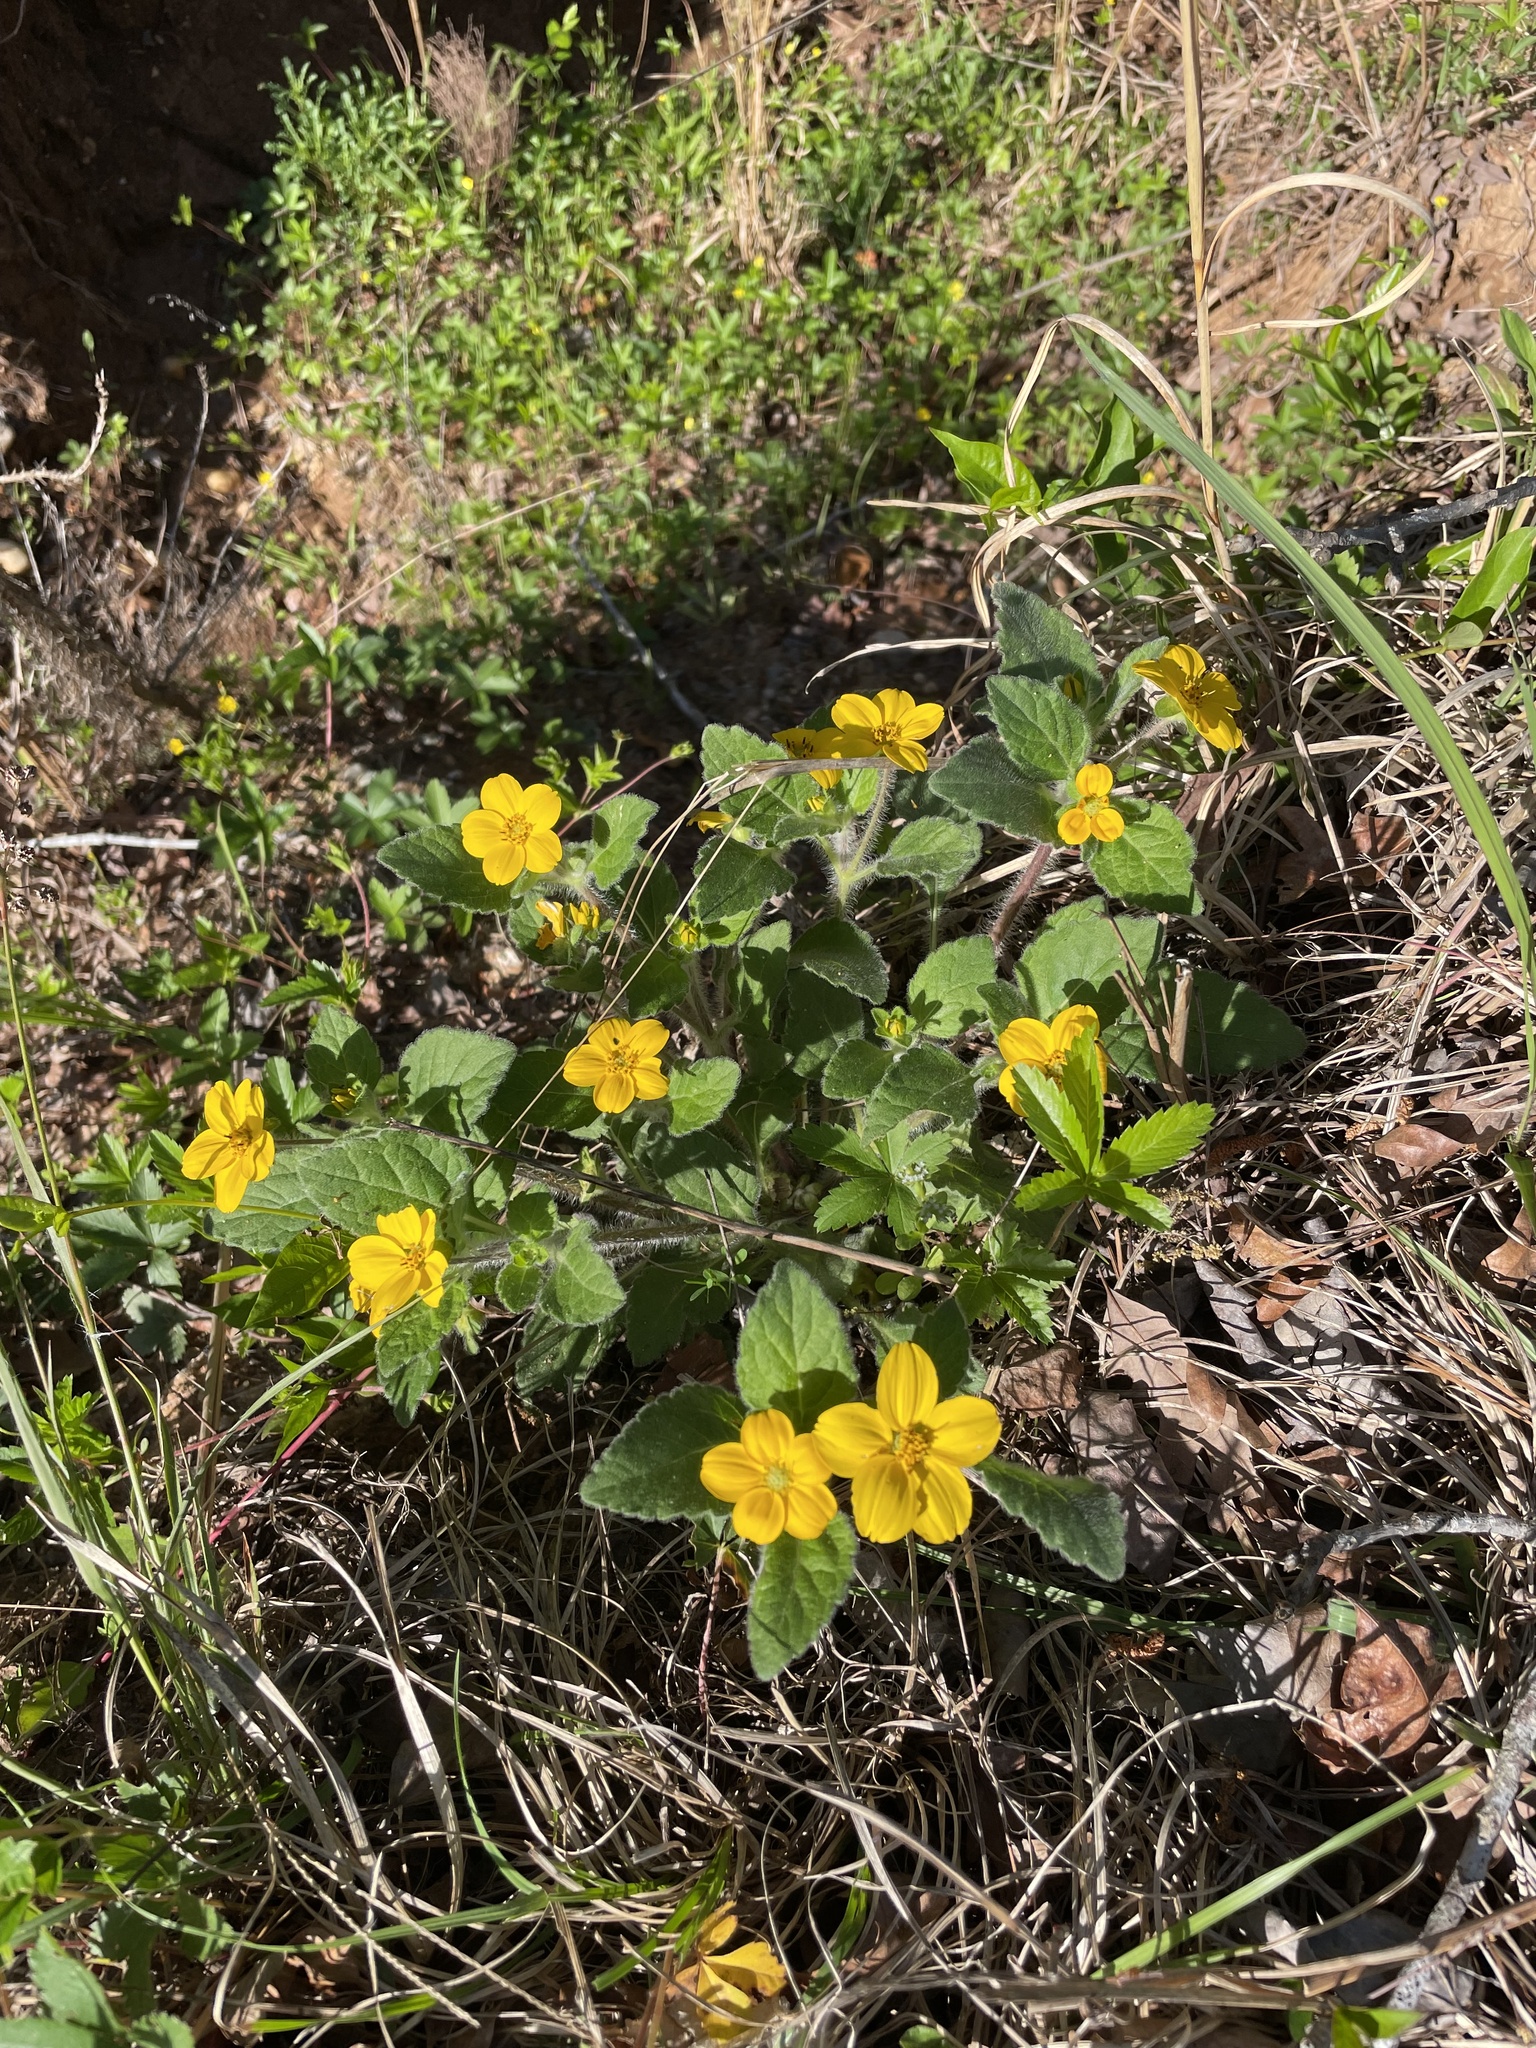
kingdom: Plantae
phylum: Tracheophyta
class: Magnoliopsida
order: Asterales
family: Asteraceae
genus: Chrysogonum
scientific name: Chrysogonum virginianum
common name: Golden-knee
